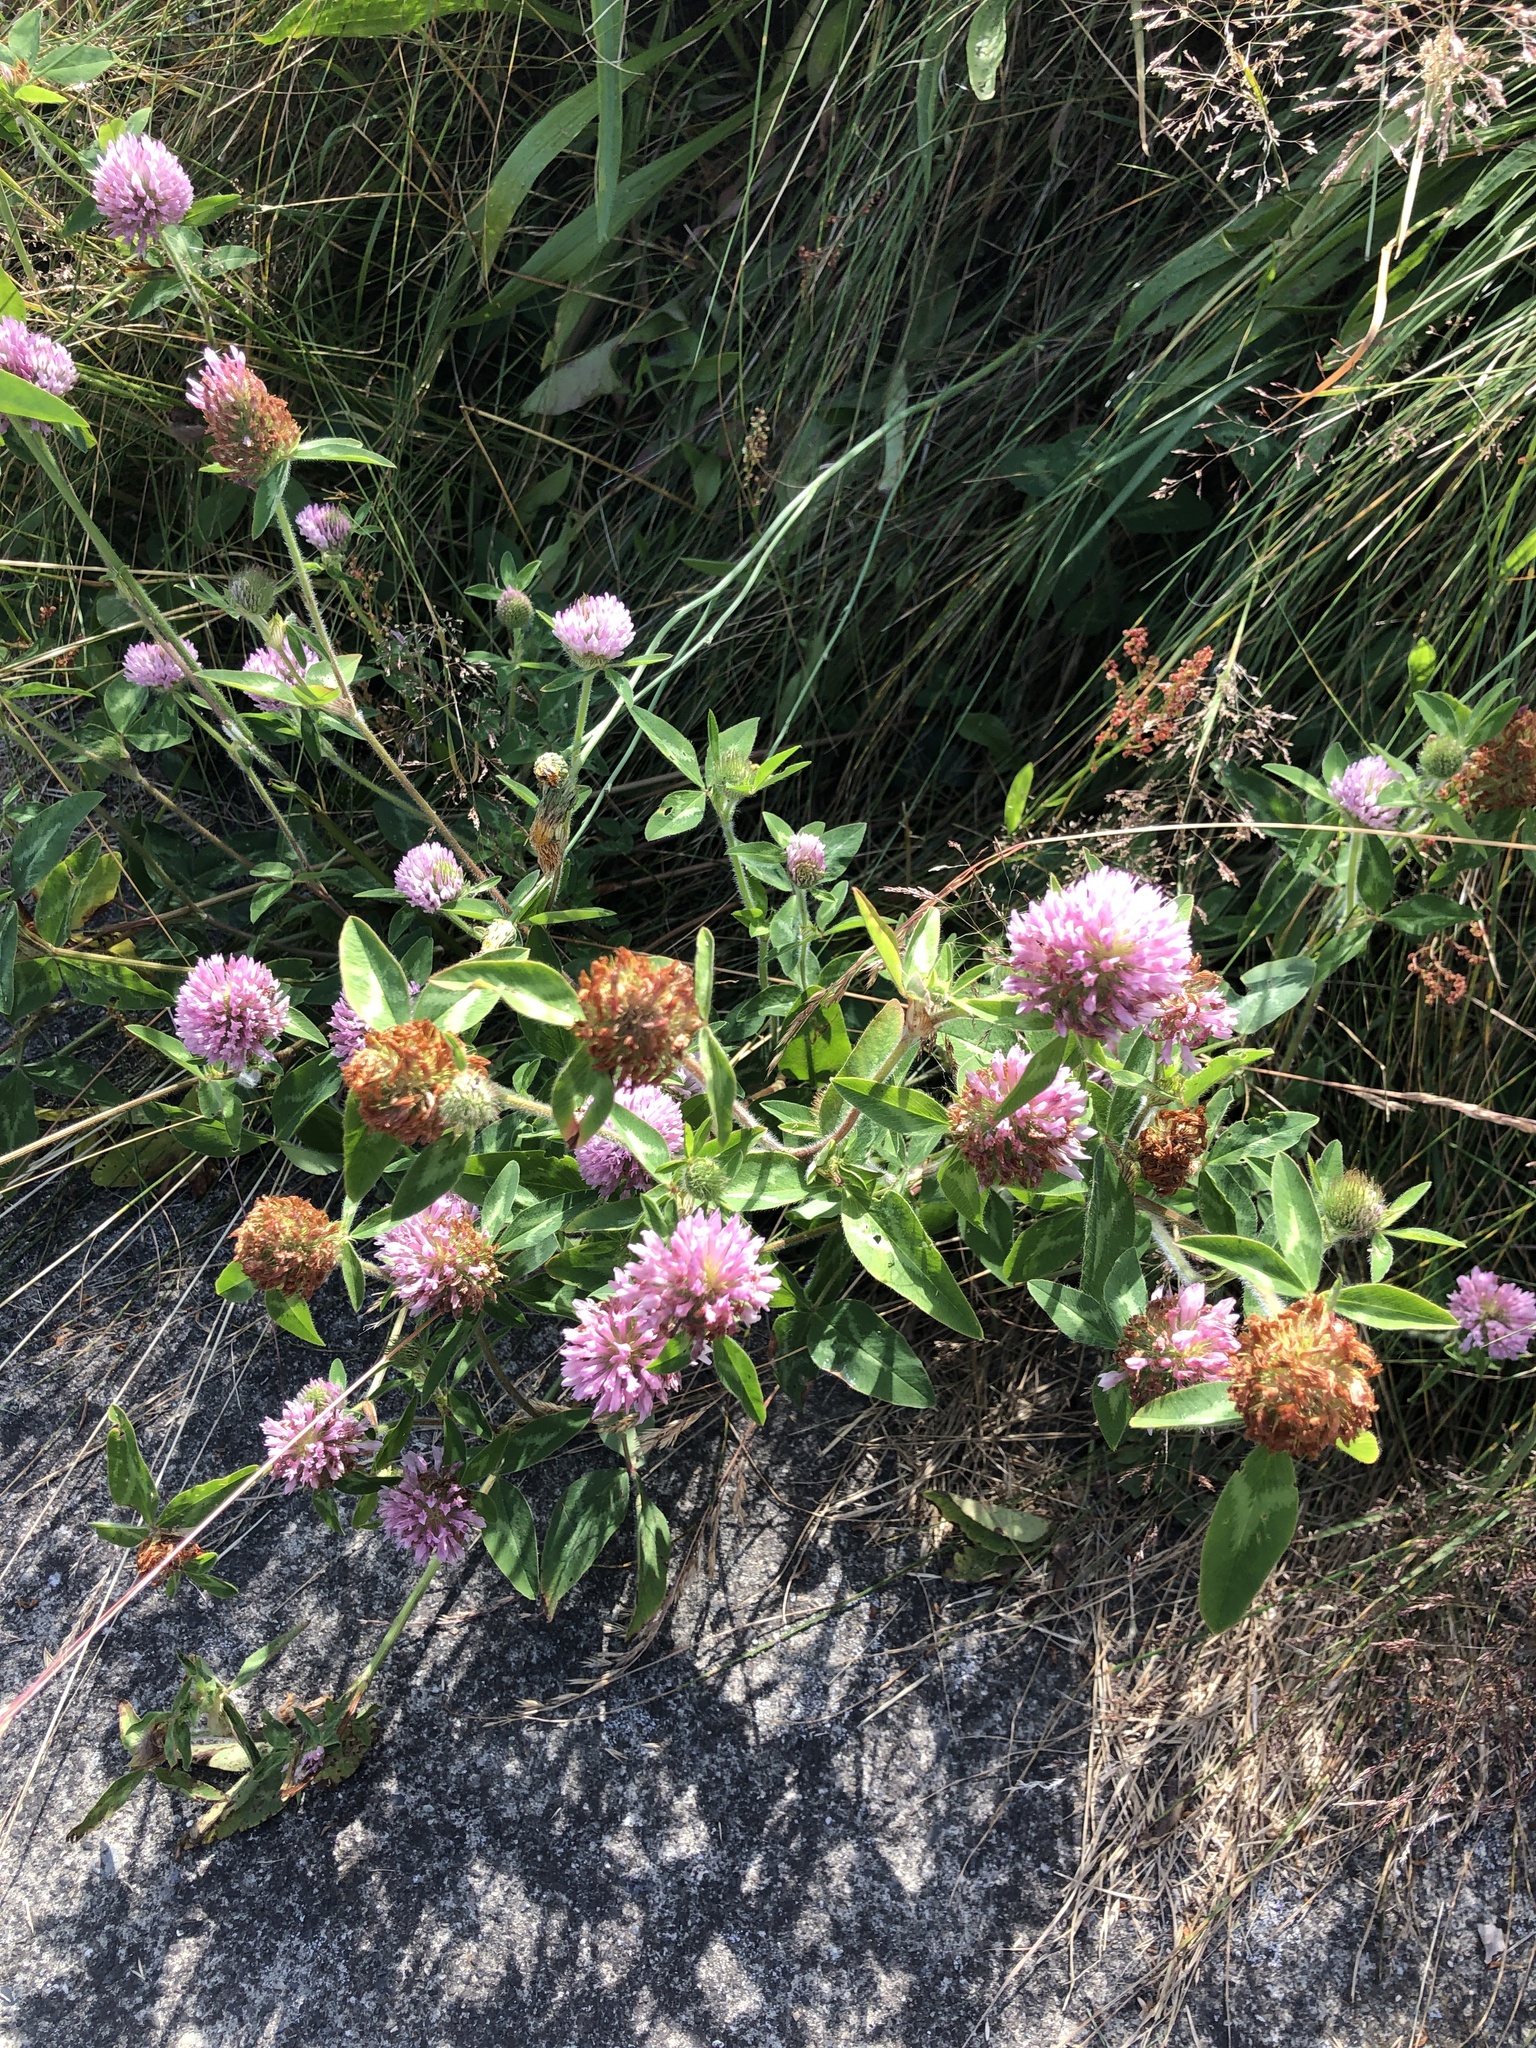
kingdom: Plantae
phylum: Tracheophyta
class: Magnoliopsida
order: Fabales
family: Fabaceae
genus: Trifolium
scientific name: Trifolium pratense
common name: Red clover
